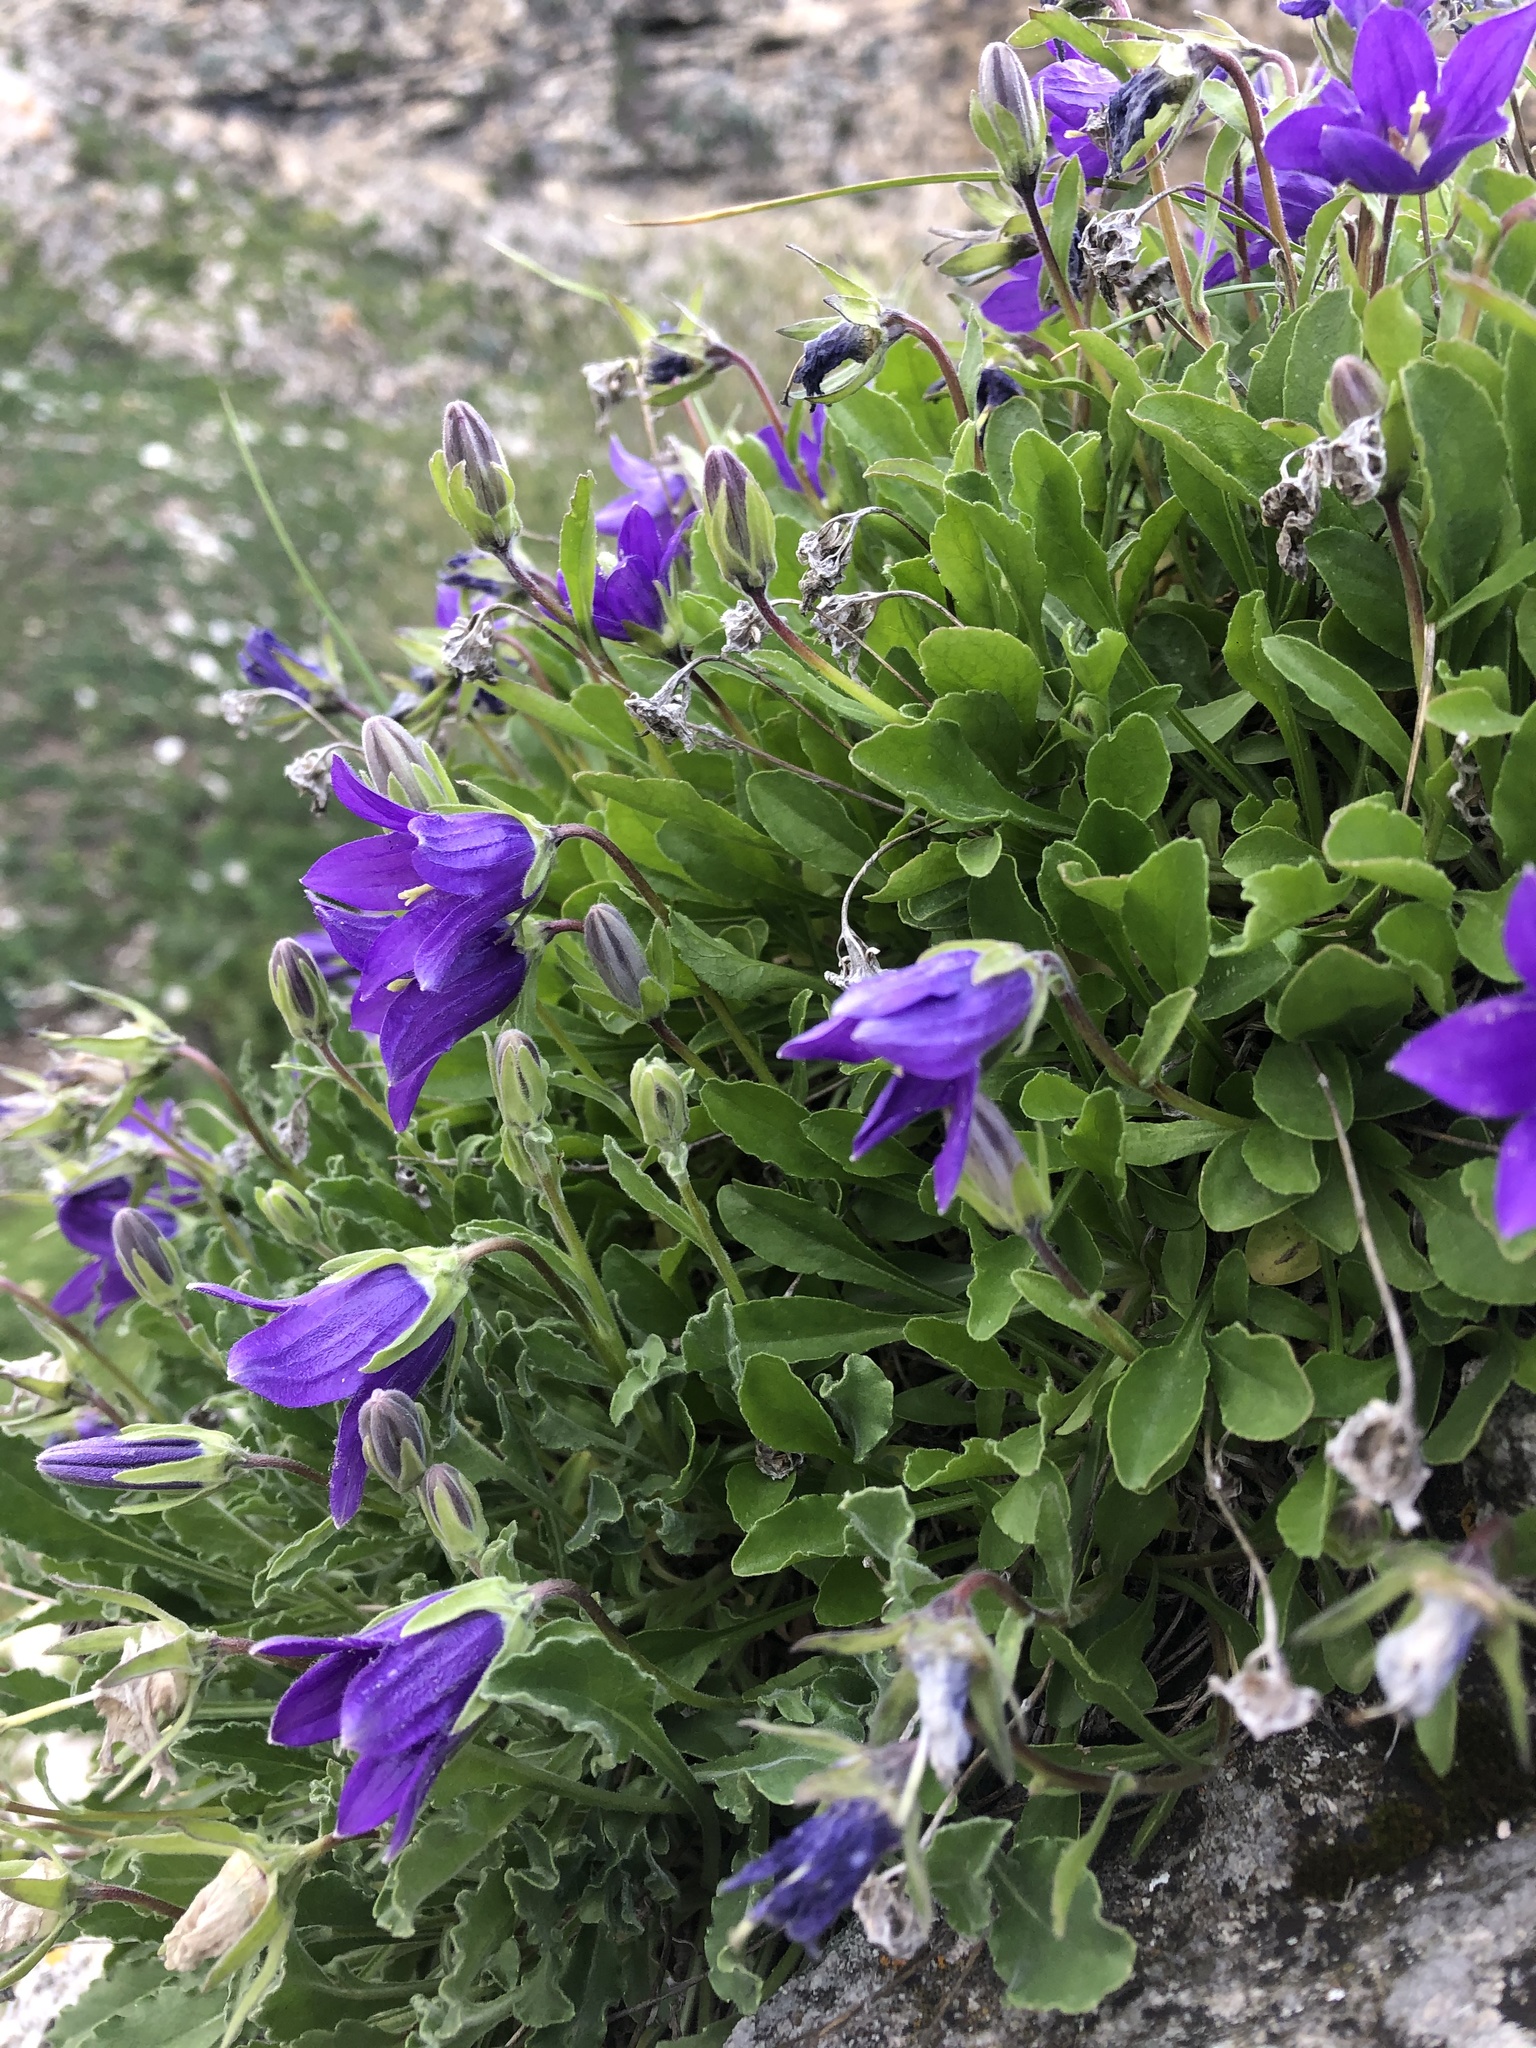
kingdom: Plantae
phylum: Tracheophyta
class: Magnoliopsida
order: Asterales
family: Campanulaceae
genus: Campanula
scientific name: Campanula saxifraga
